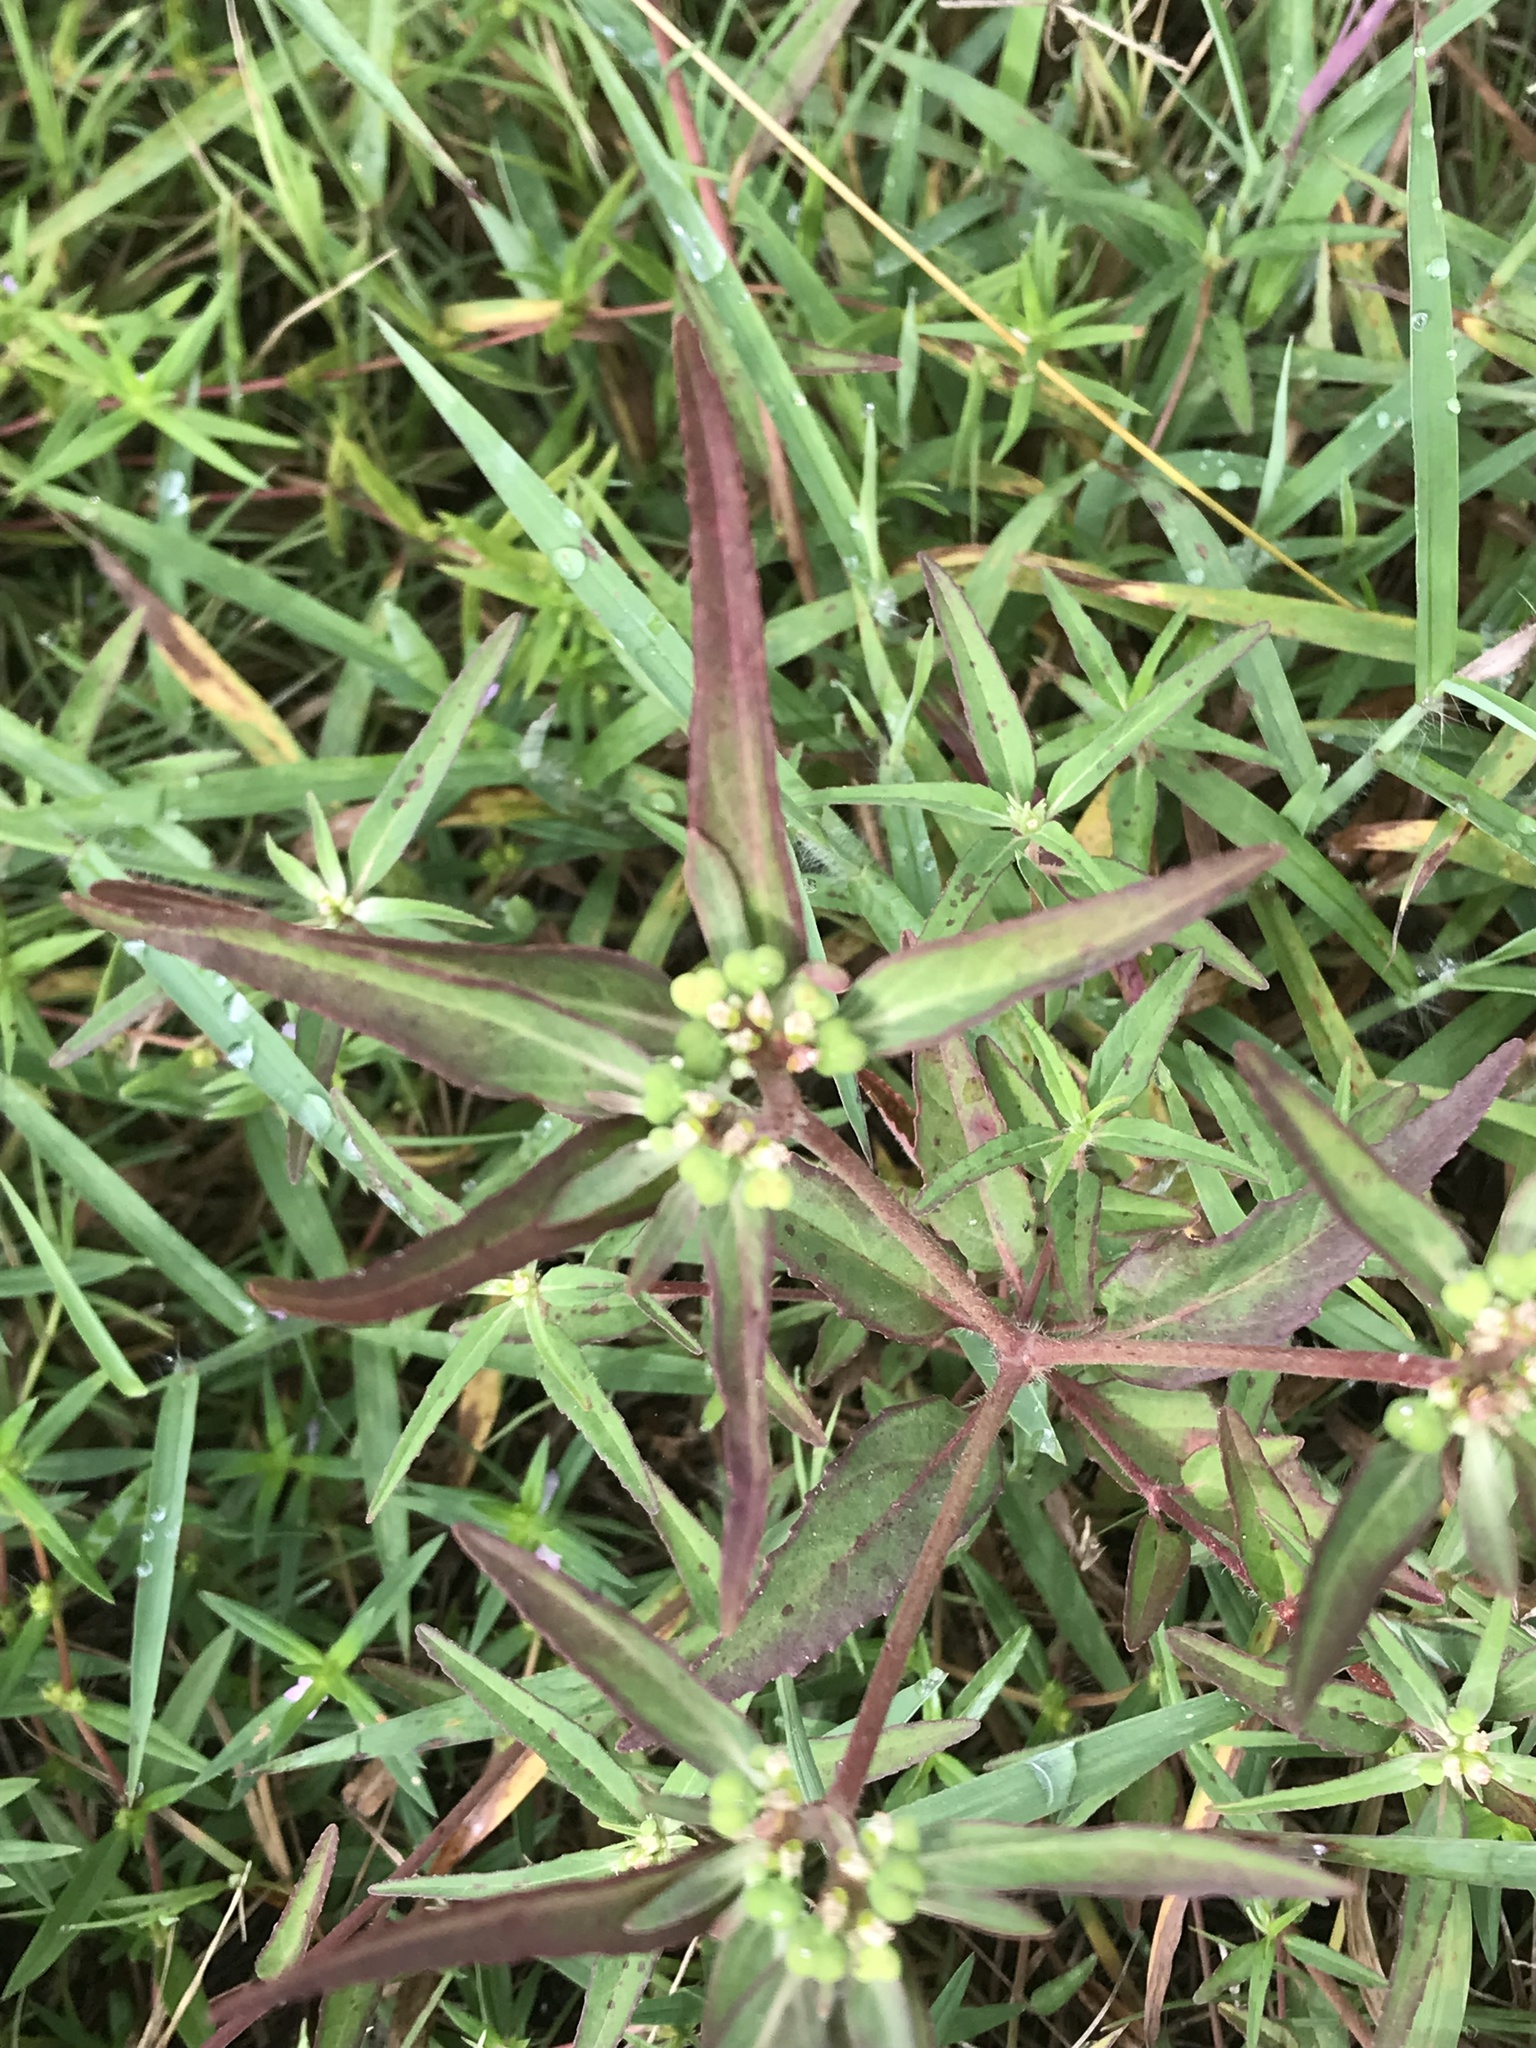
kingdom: Plantae
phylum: Tracheophyta
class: Magnoliopsida
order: Malpighiales
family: Euphorbiaceae
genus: Euphorbia
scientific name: Euphorbia dentata
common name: Dentate spurge
